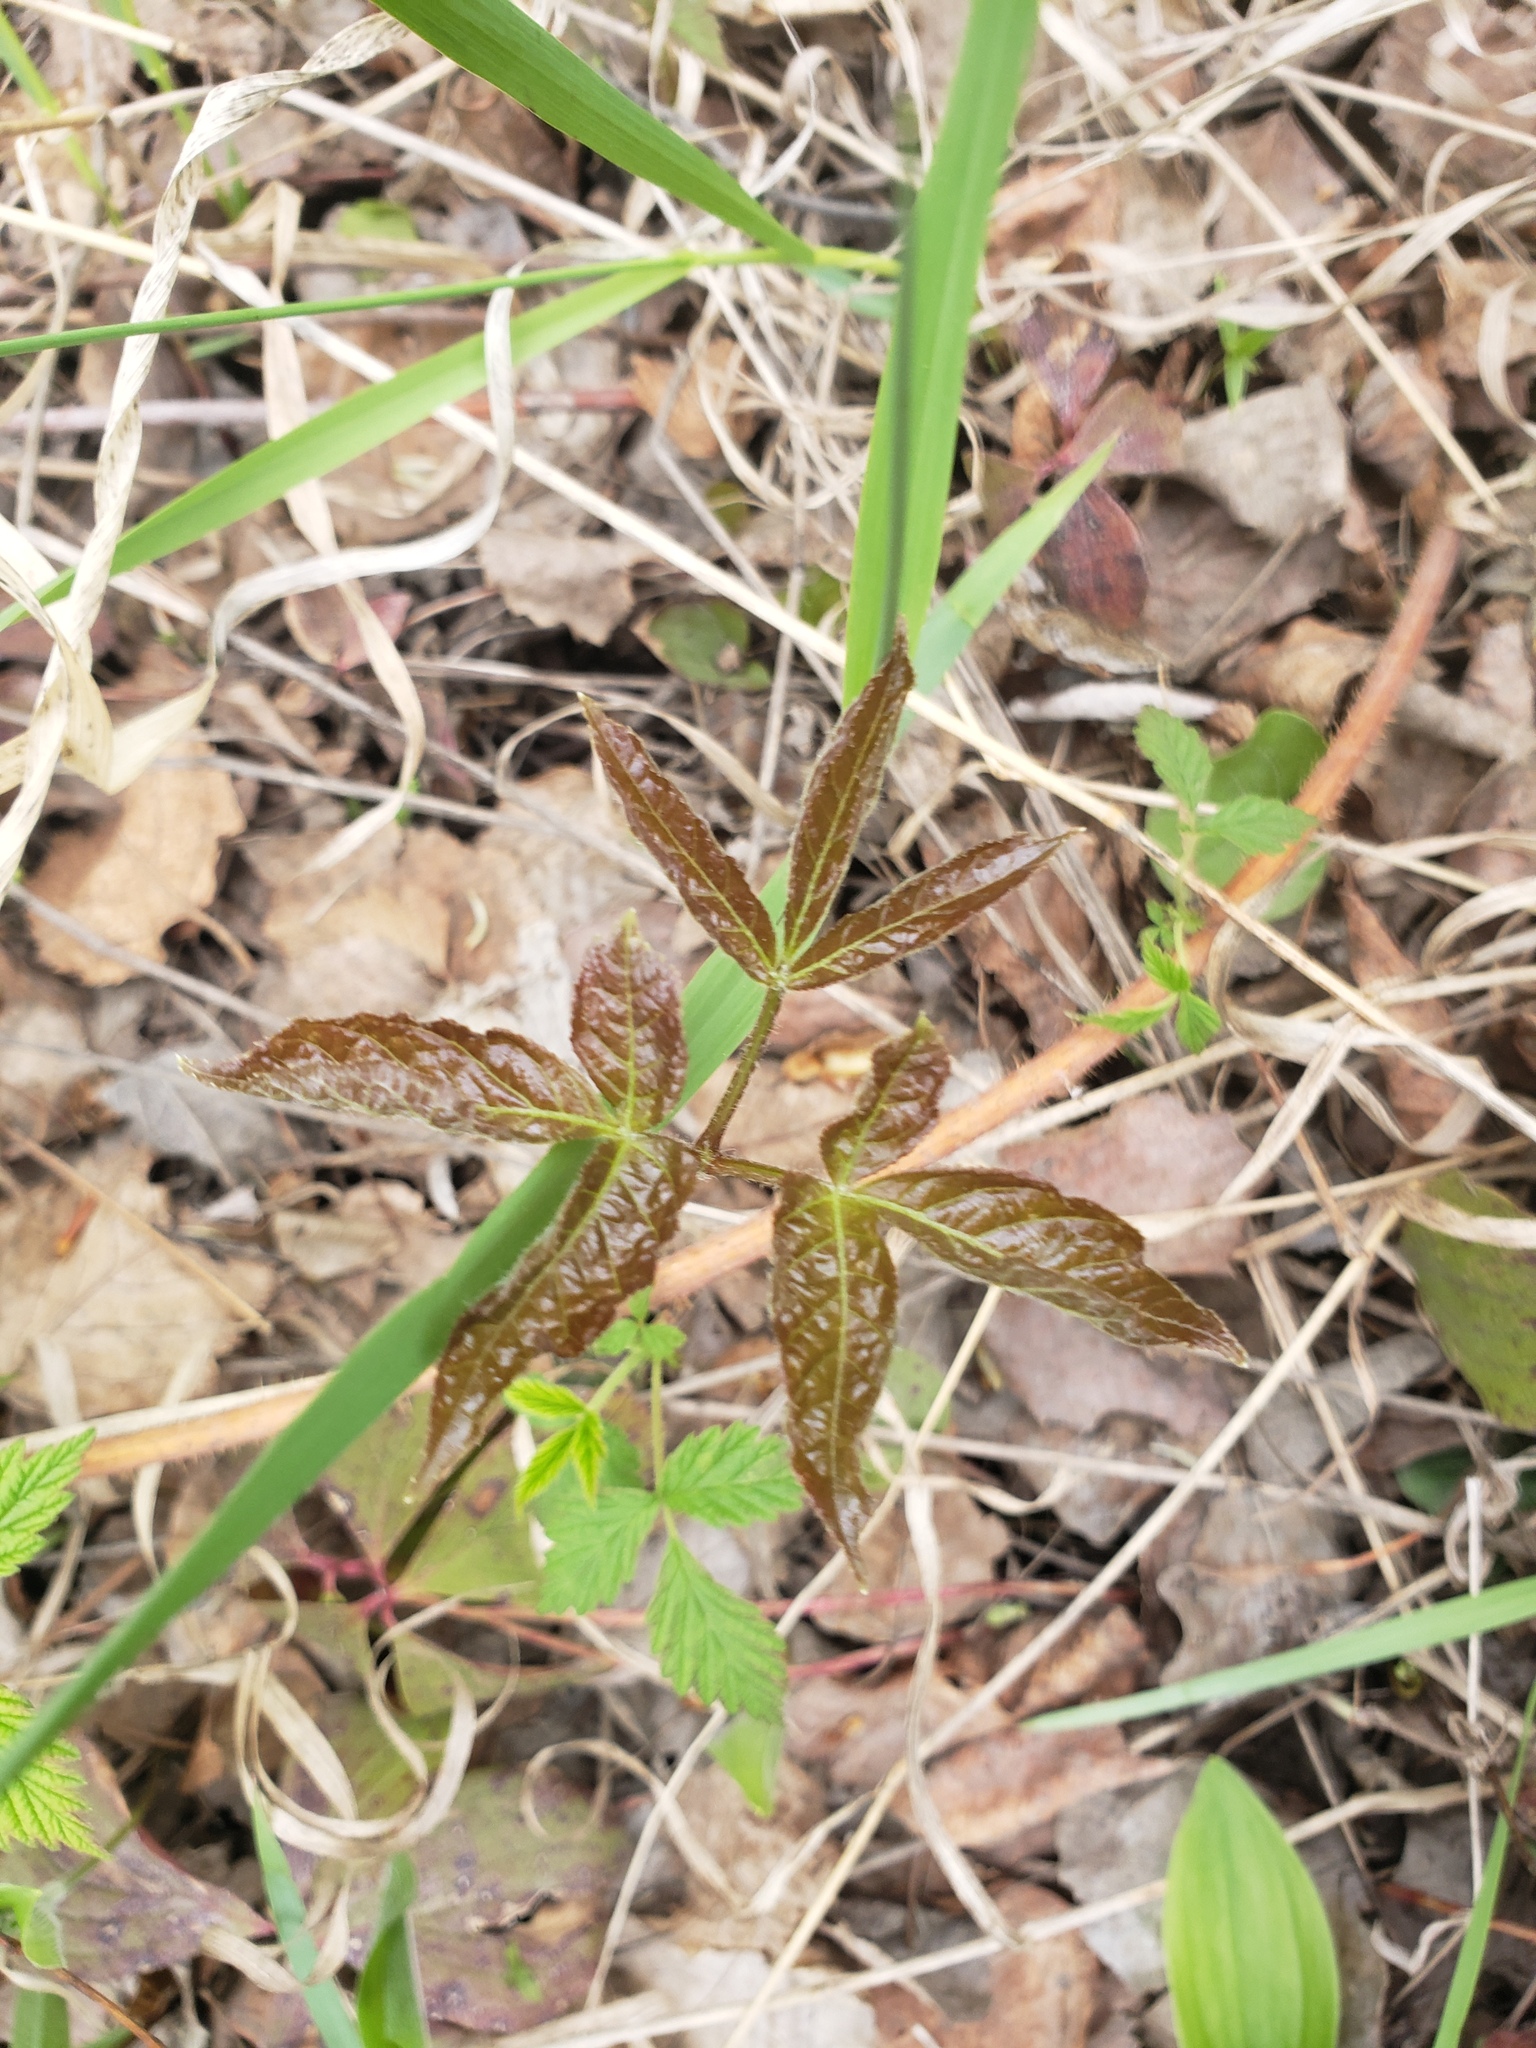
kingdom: Plantae
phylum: Tracheophyta
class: Magnoliopsida
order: Apiales
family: Araliaceae
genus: Aralia
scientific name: Aralia nudicaulis
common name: Wild sarsaparilla
